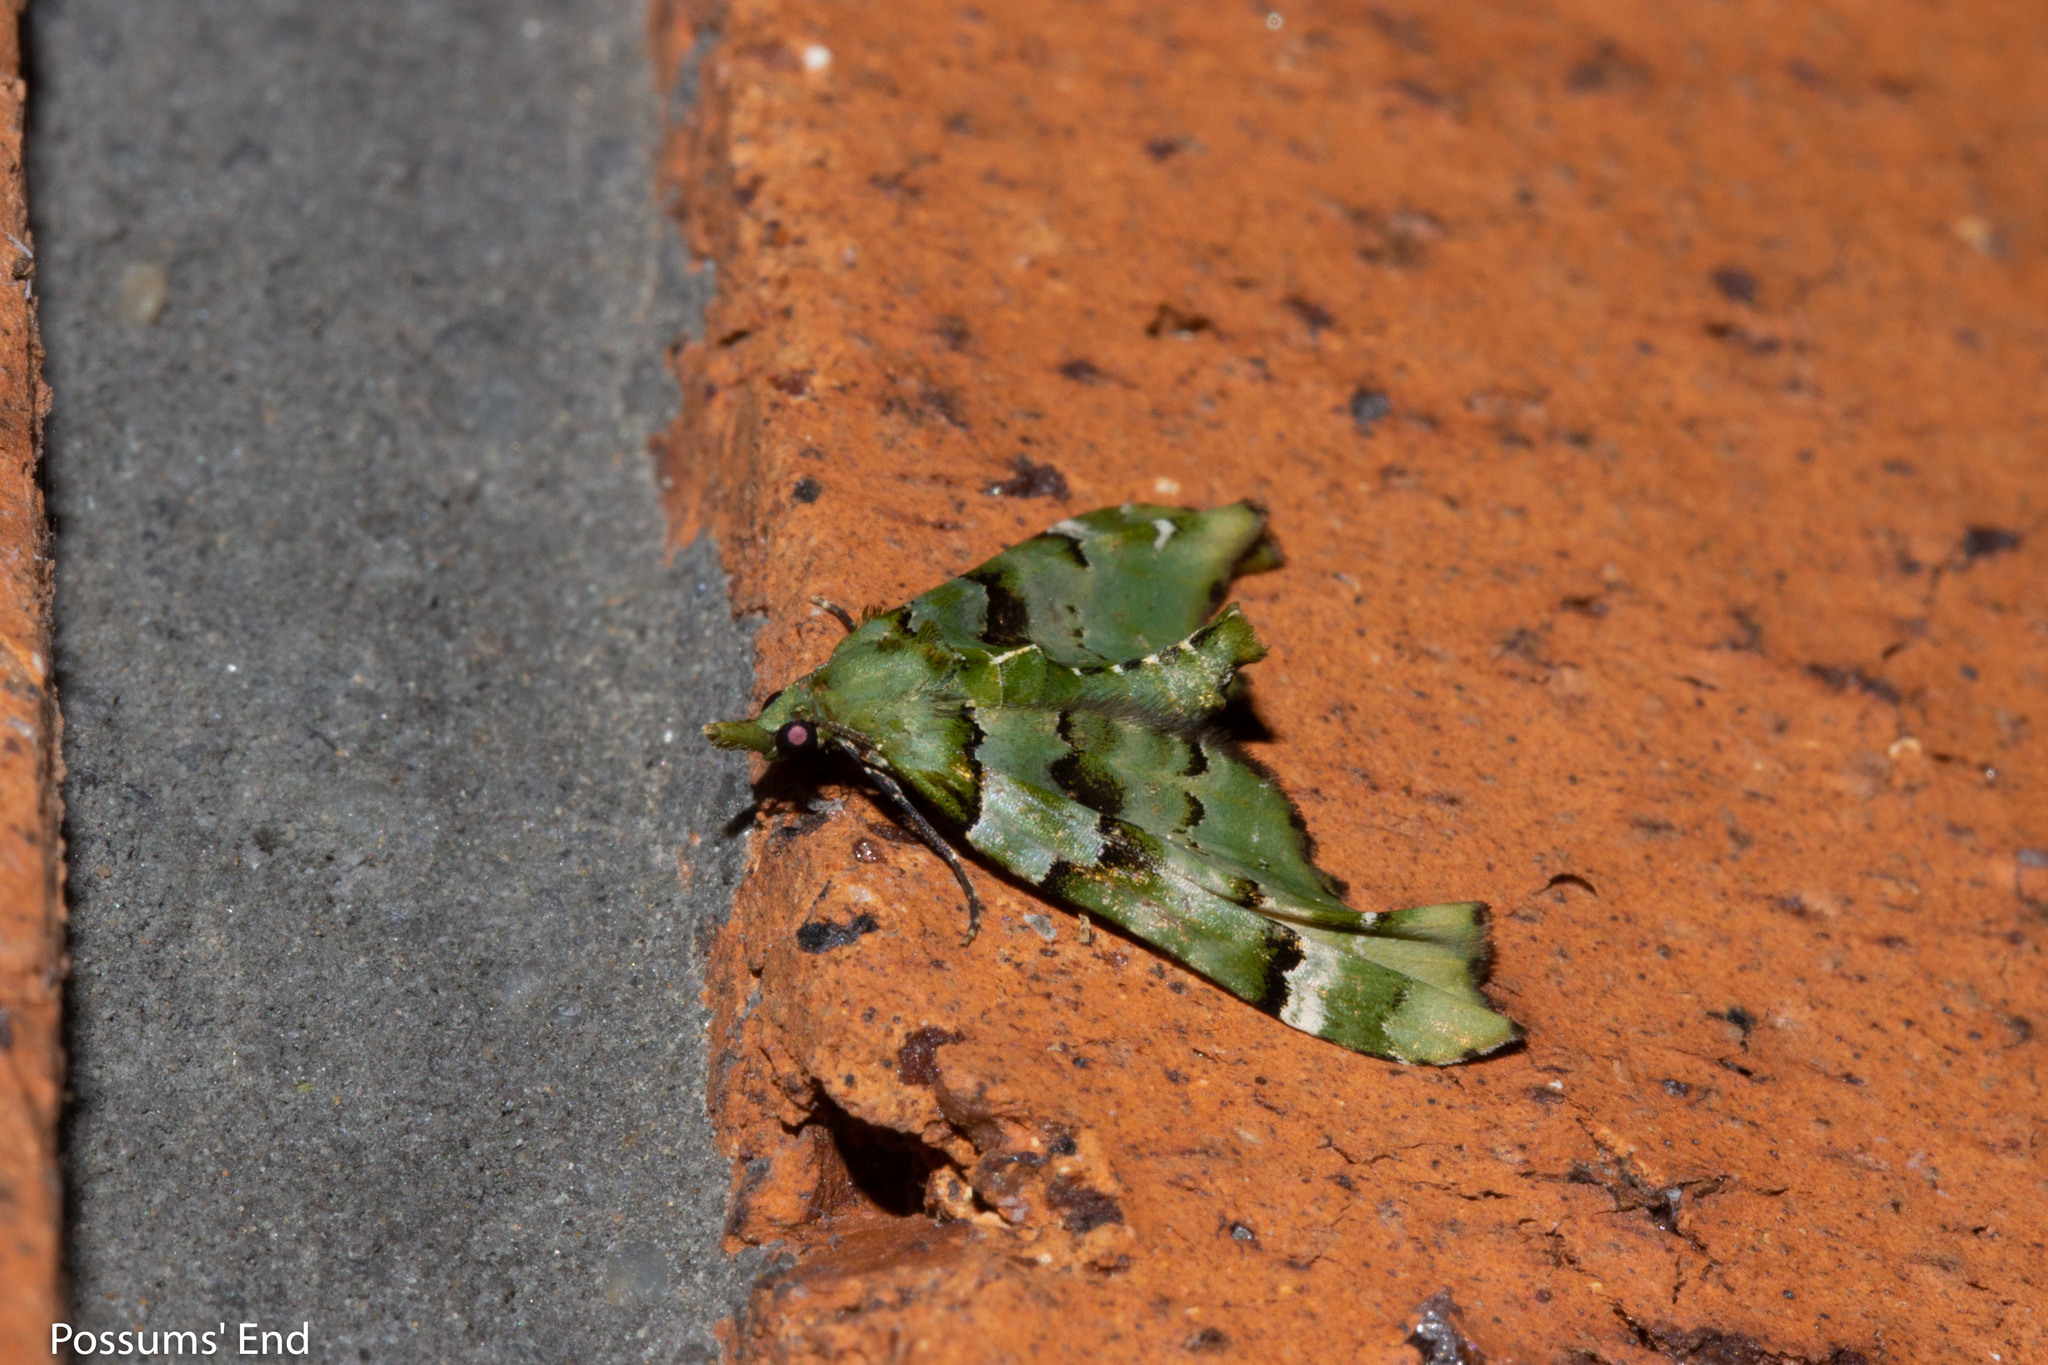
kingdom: Animalia
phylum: Arthropoda
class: Insecta
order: Lepidoptera
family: Geometridae
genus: Elvia
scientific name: Elvia glaucata
